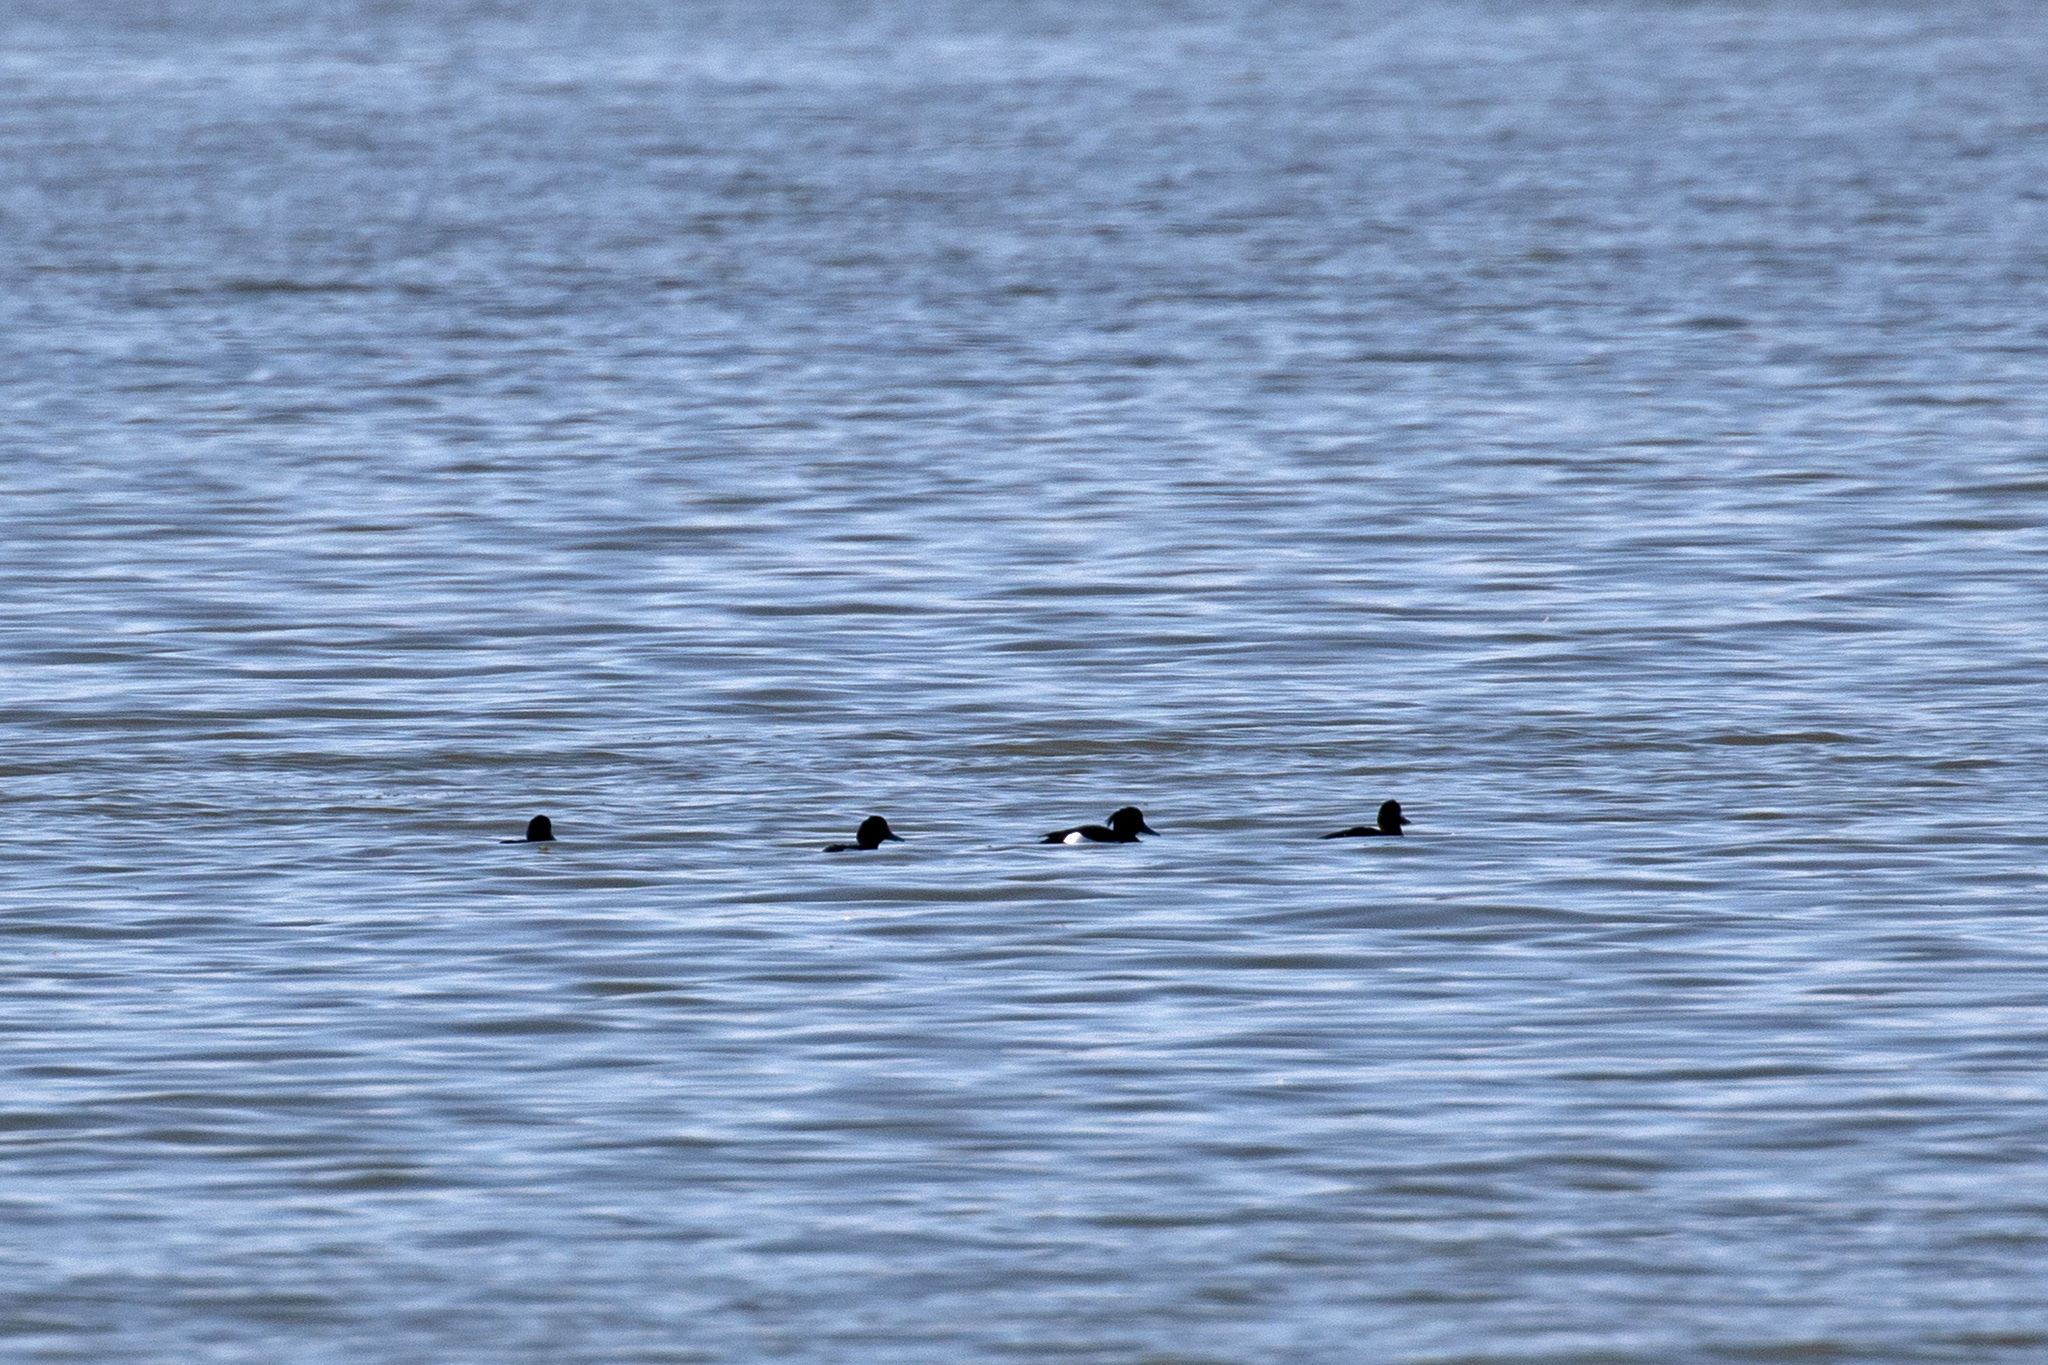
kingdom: Animalia
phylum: Chordata
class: Aves
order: Anseriformes
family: Anatidae
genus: Aythya
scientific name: Aythya fuligula
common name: Tufted duck
